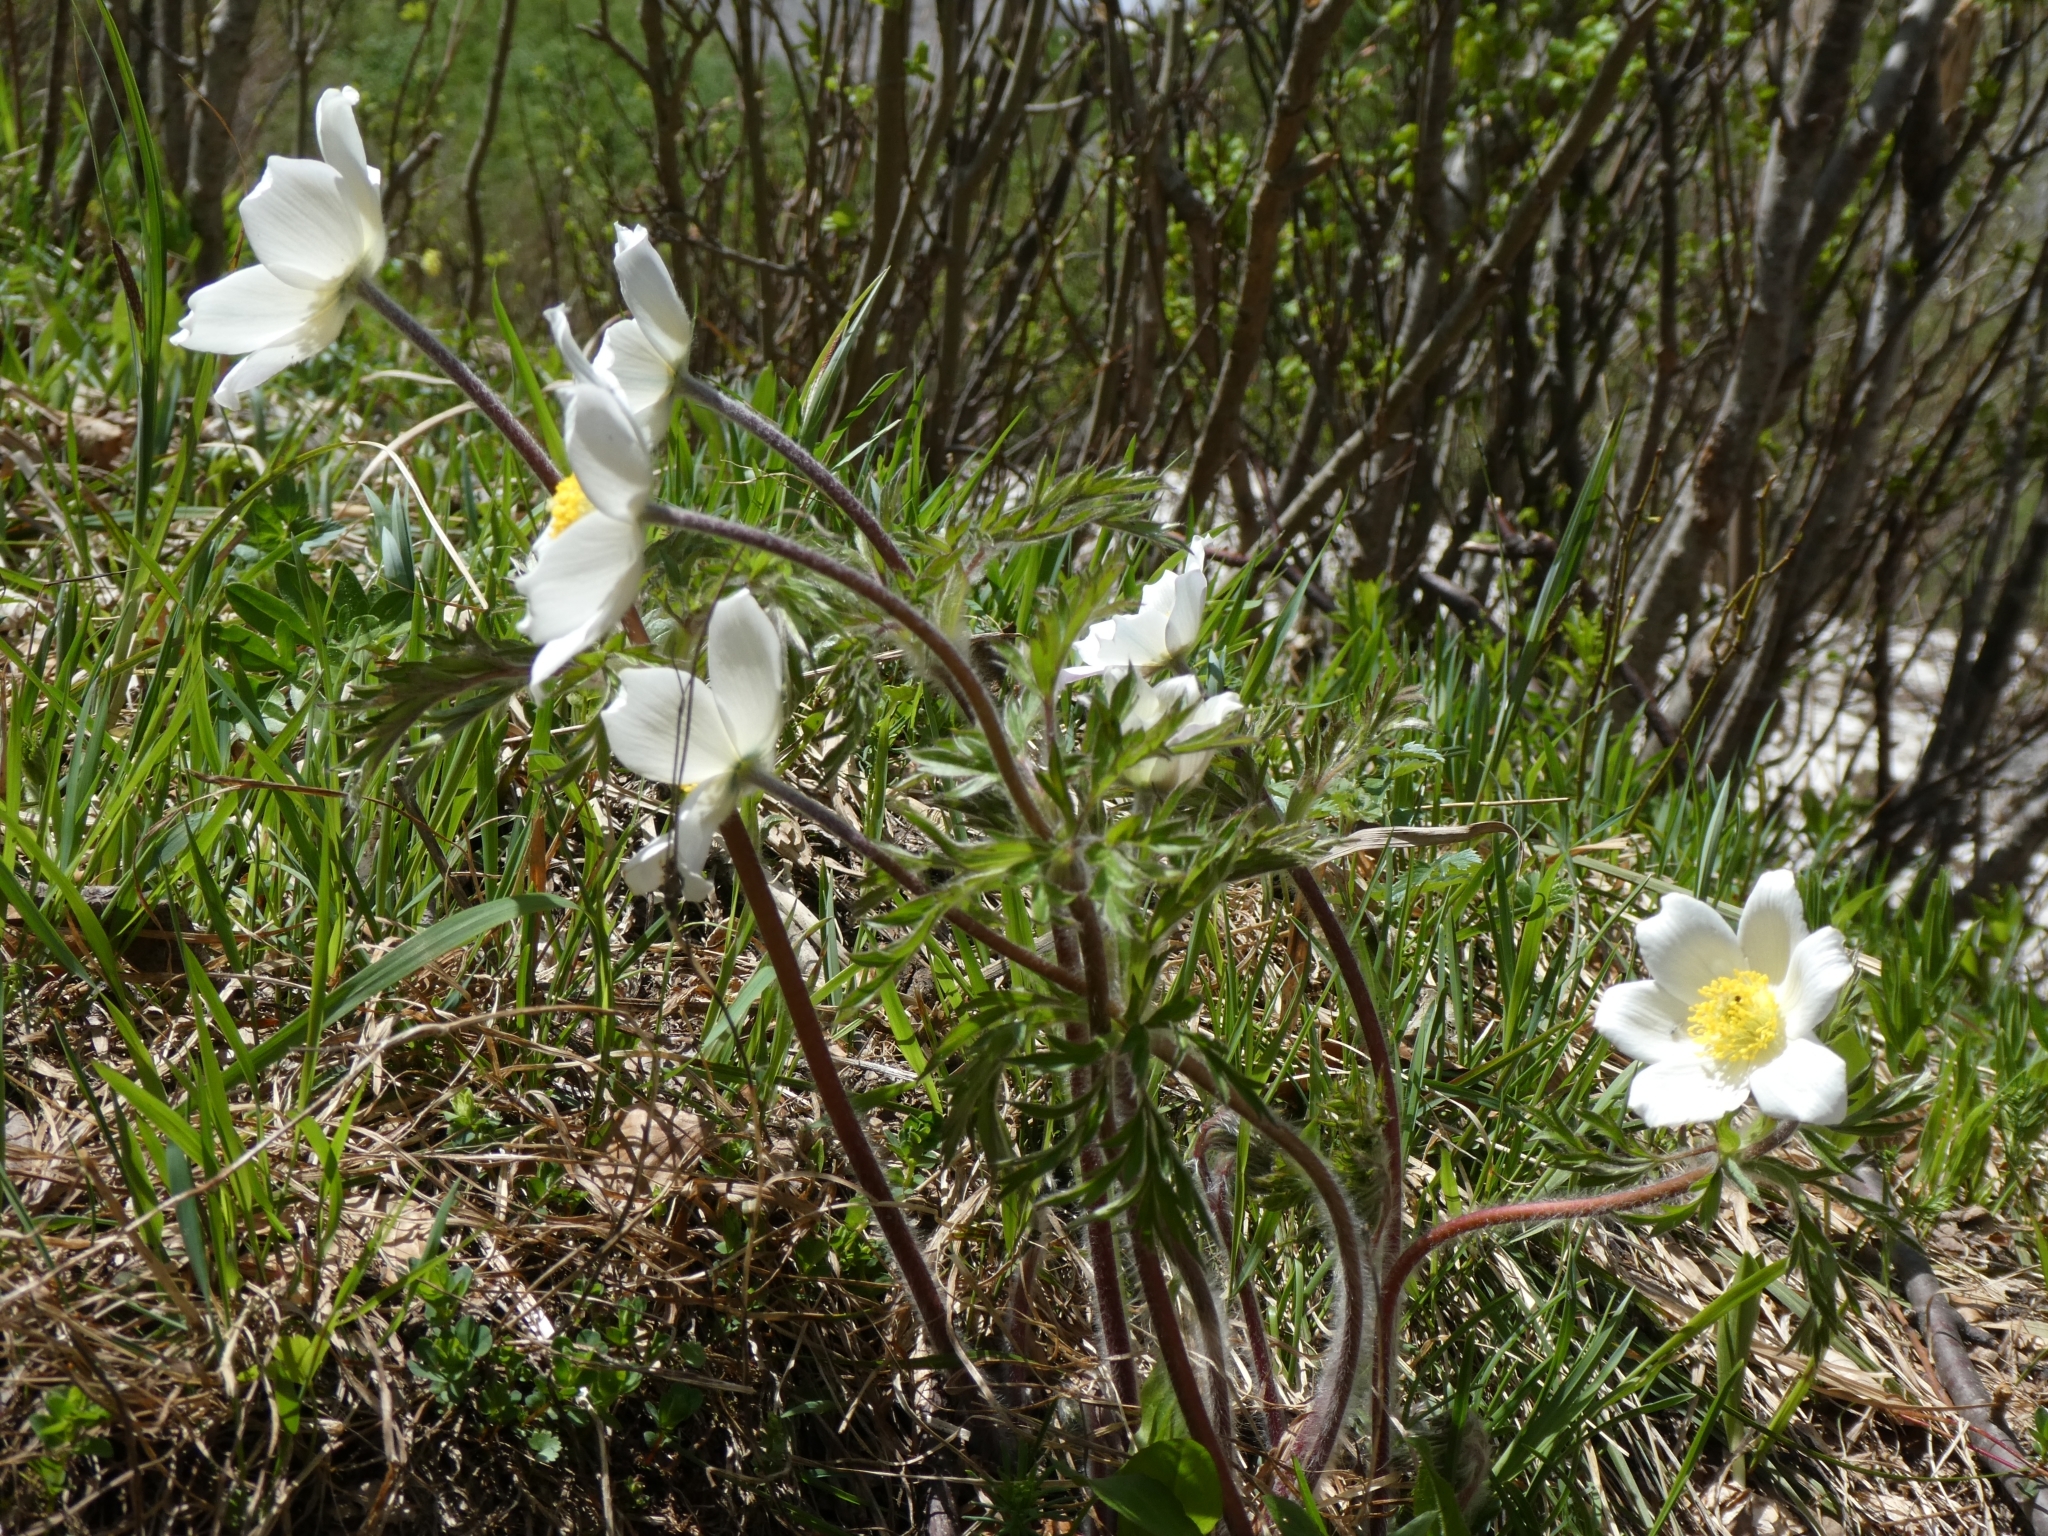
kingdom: Plantae
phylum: Tracheophyta
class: Magnoliopsida
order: Ranunculales
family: Ranunculaceae
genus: Pulsatilla
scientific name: Pulsatilla alpina
